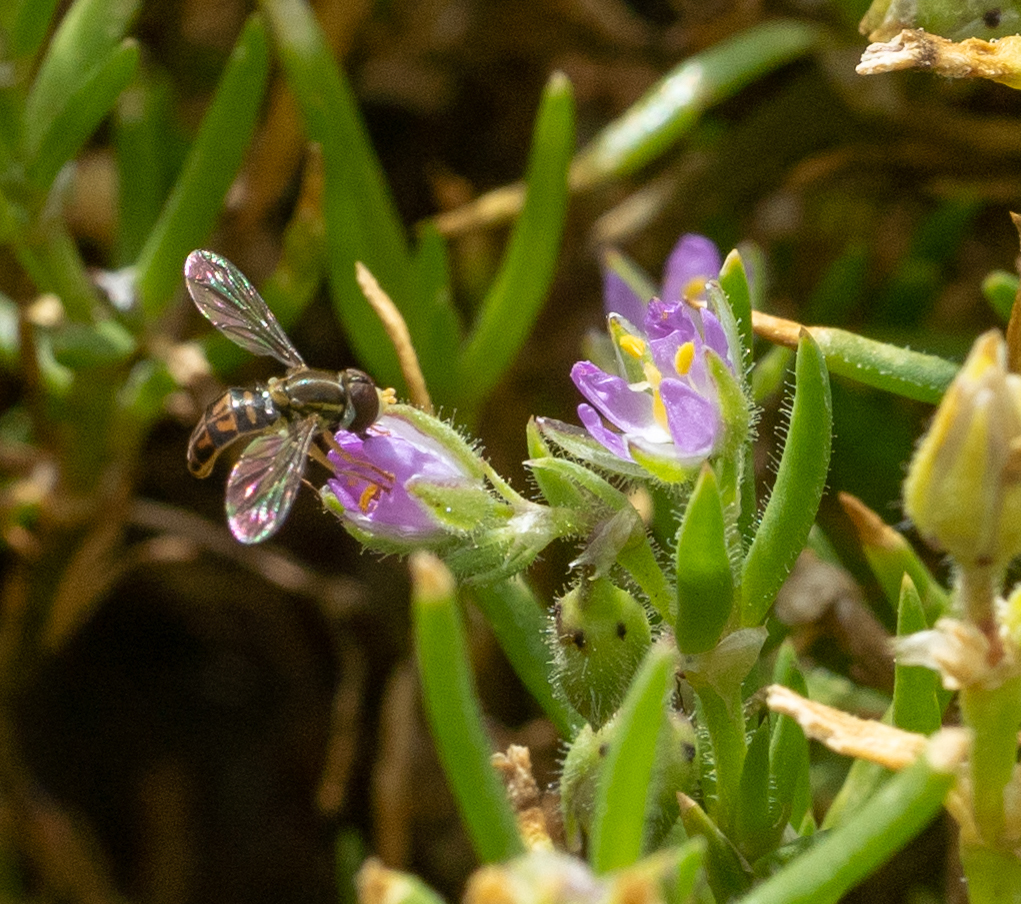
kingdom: Animalia
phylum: Arthropoda
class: Insecta
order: Diptera
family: Syrphidae
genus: Toxomerus
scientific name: Toxomerus marginatus
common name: Syrphid fly
